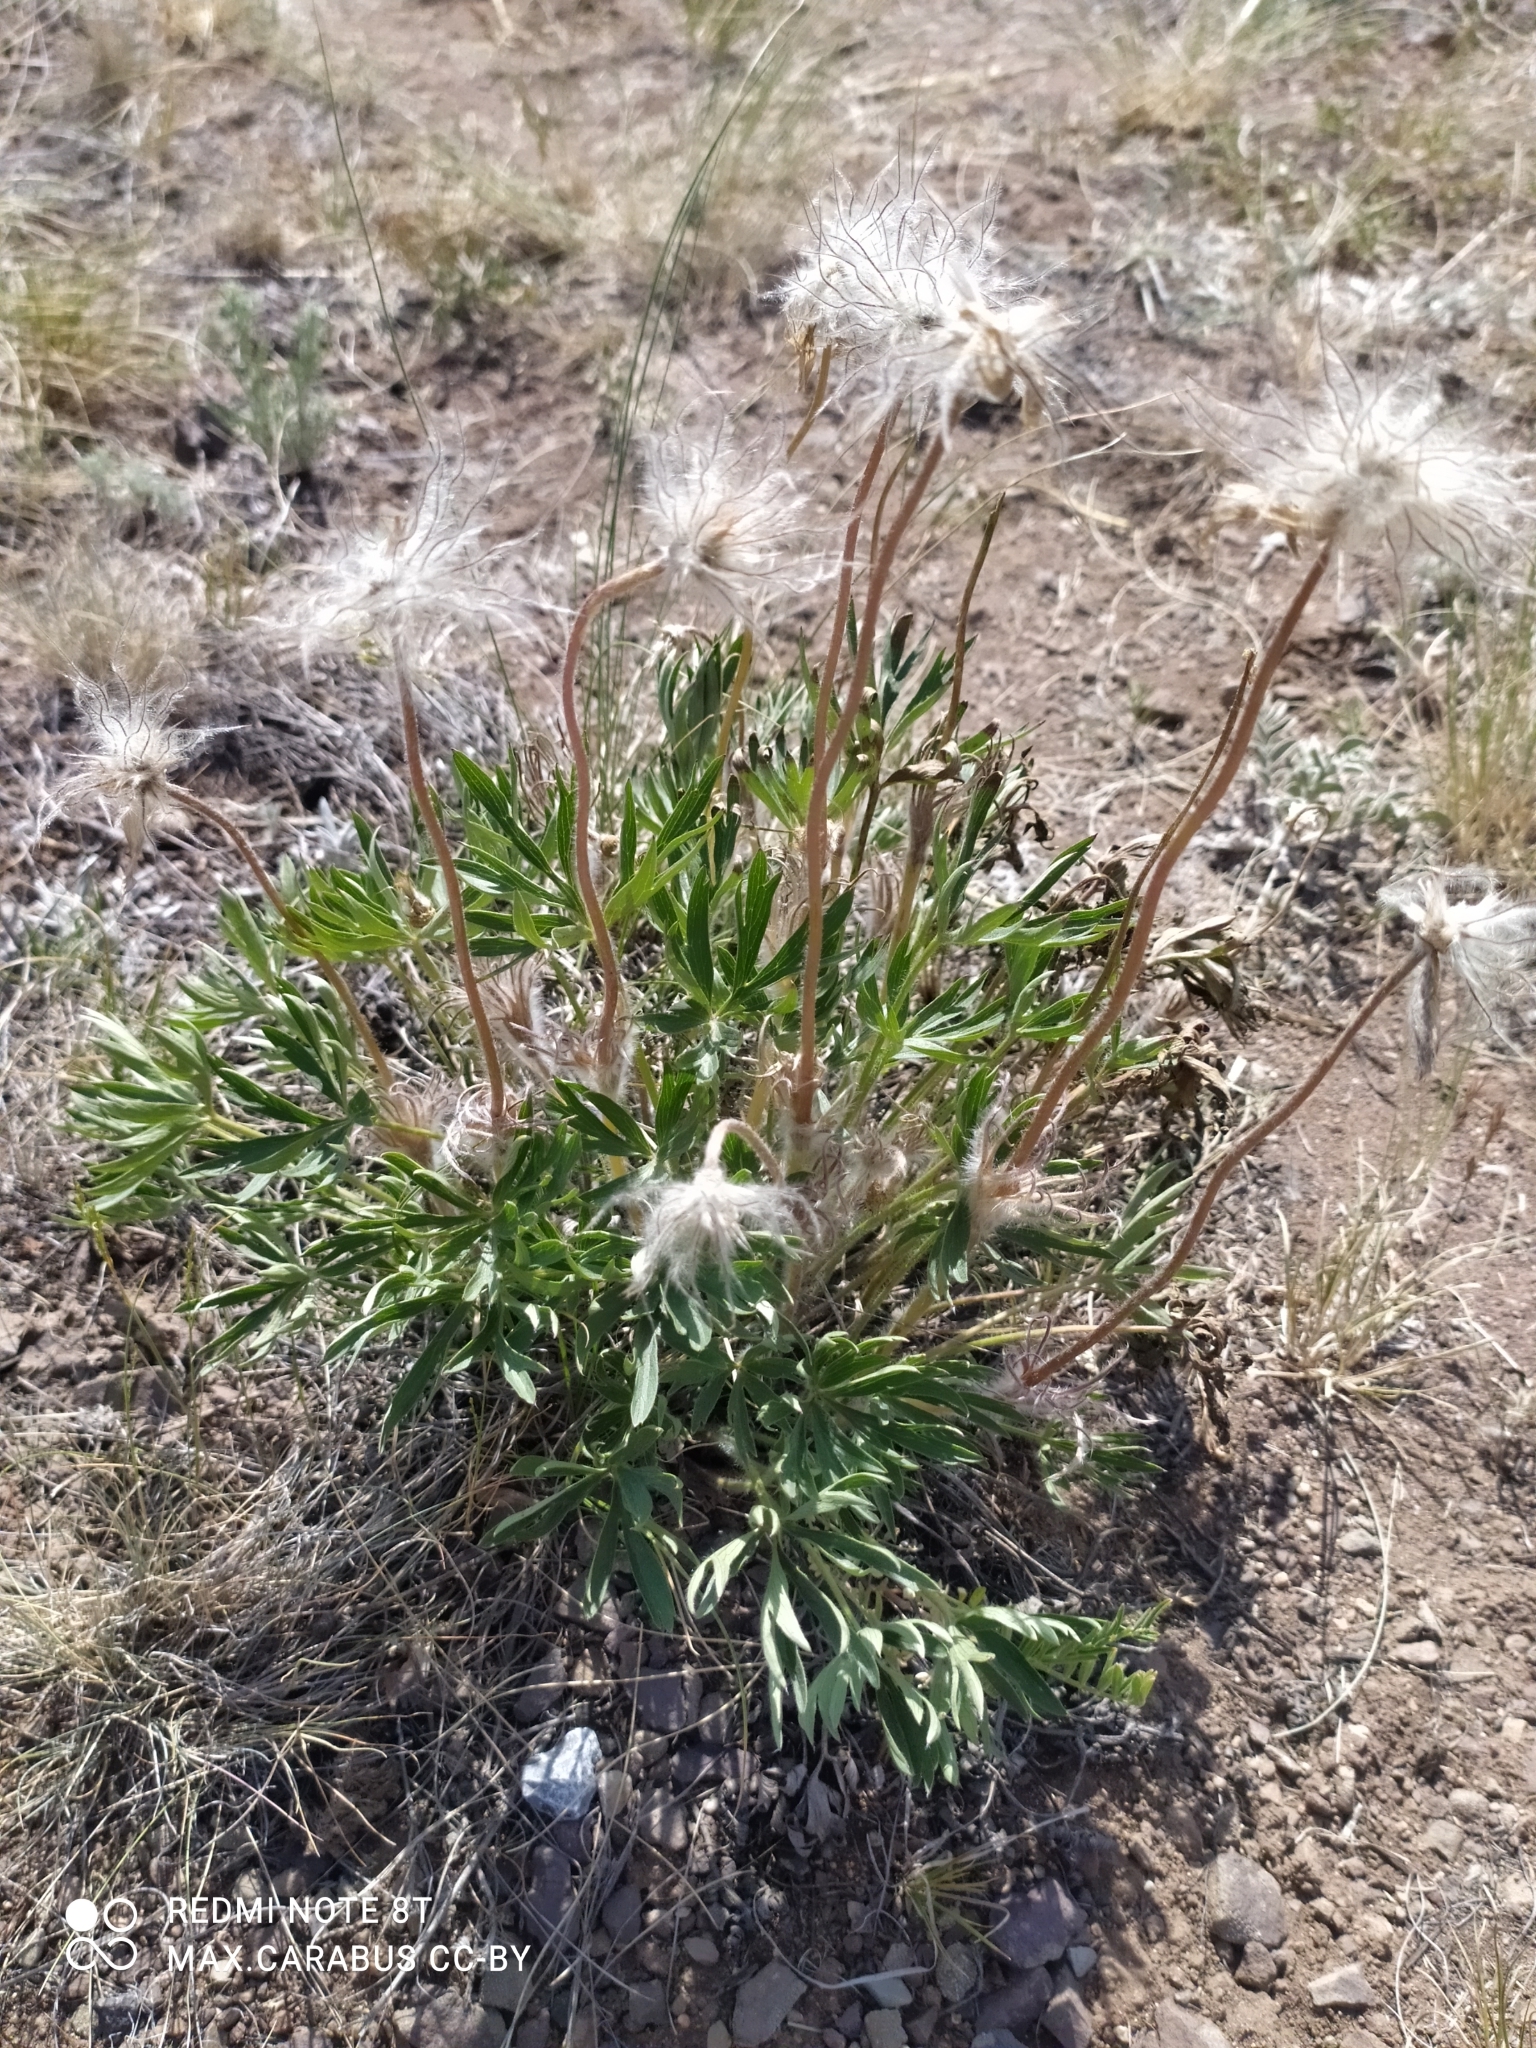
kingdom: Plantae
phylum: Tracheophyta
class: Magnoliopsida
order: Ranunculales
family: Ranunculaceae
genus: Pulsatilla
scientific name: Pulsatilla patens
